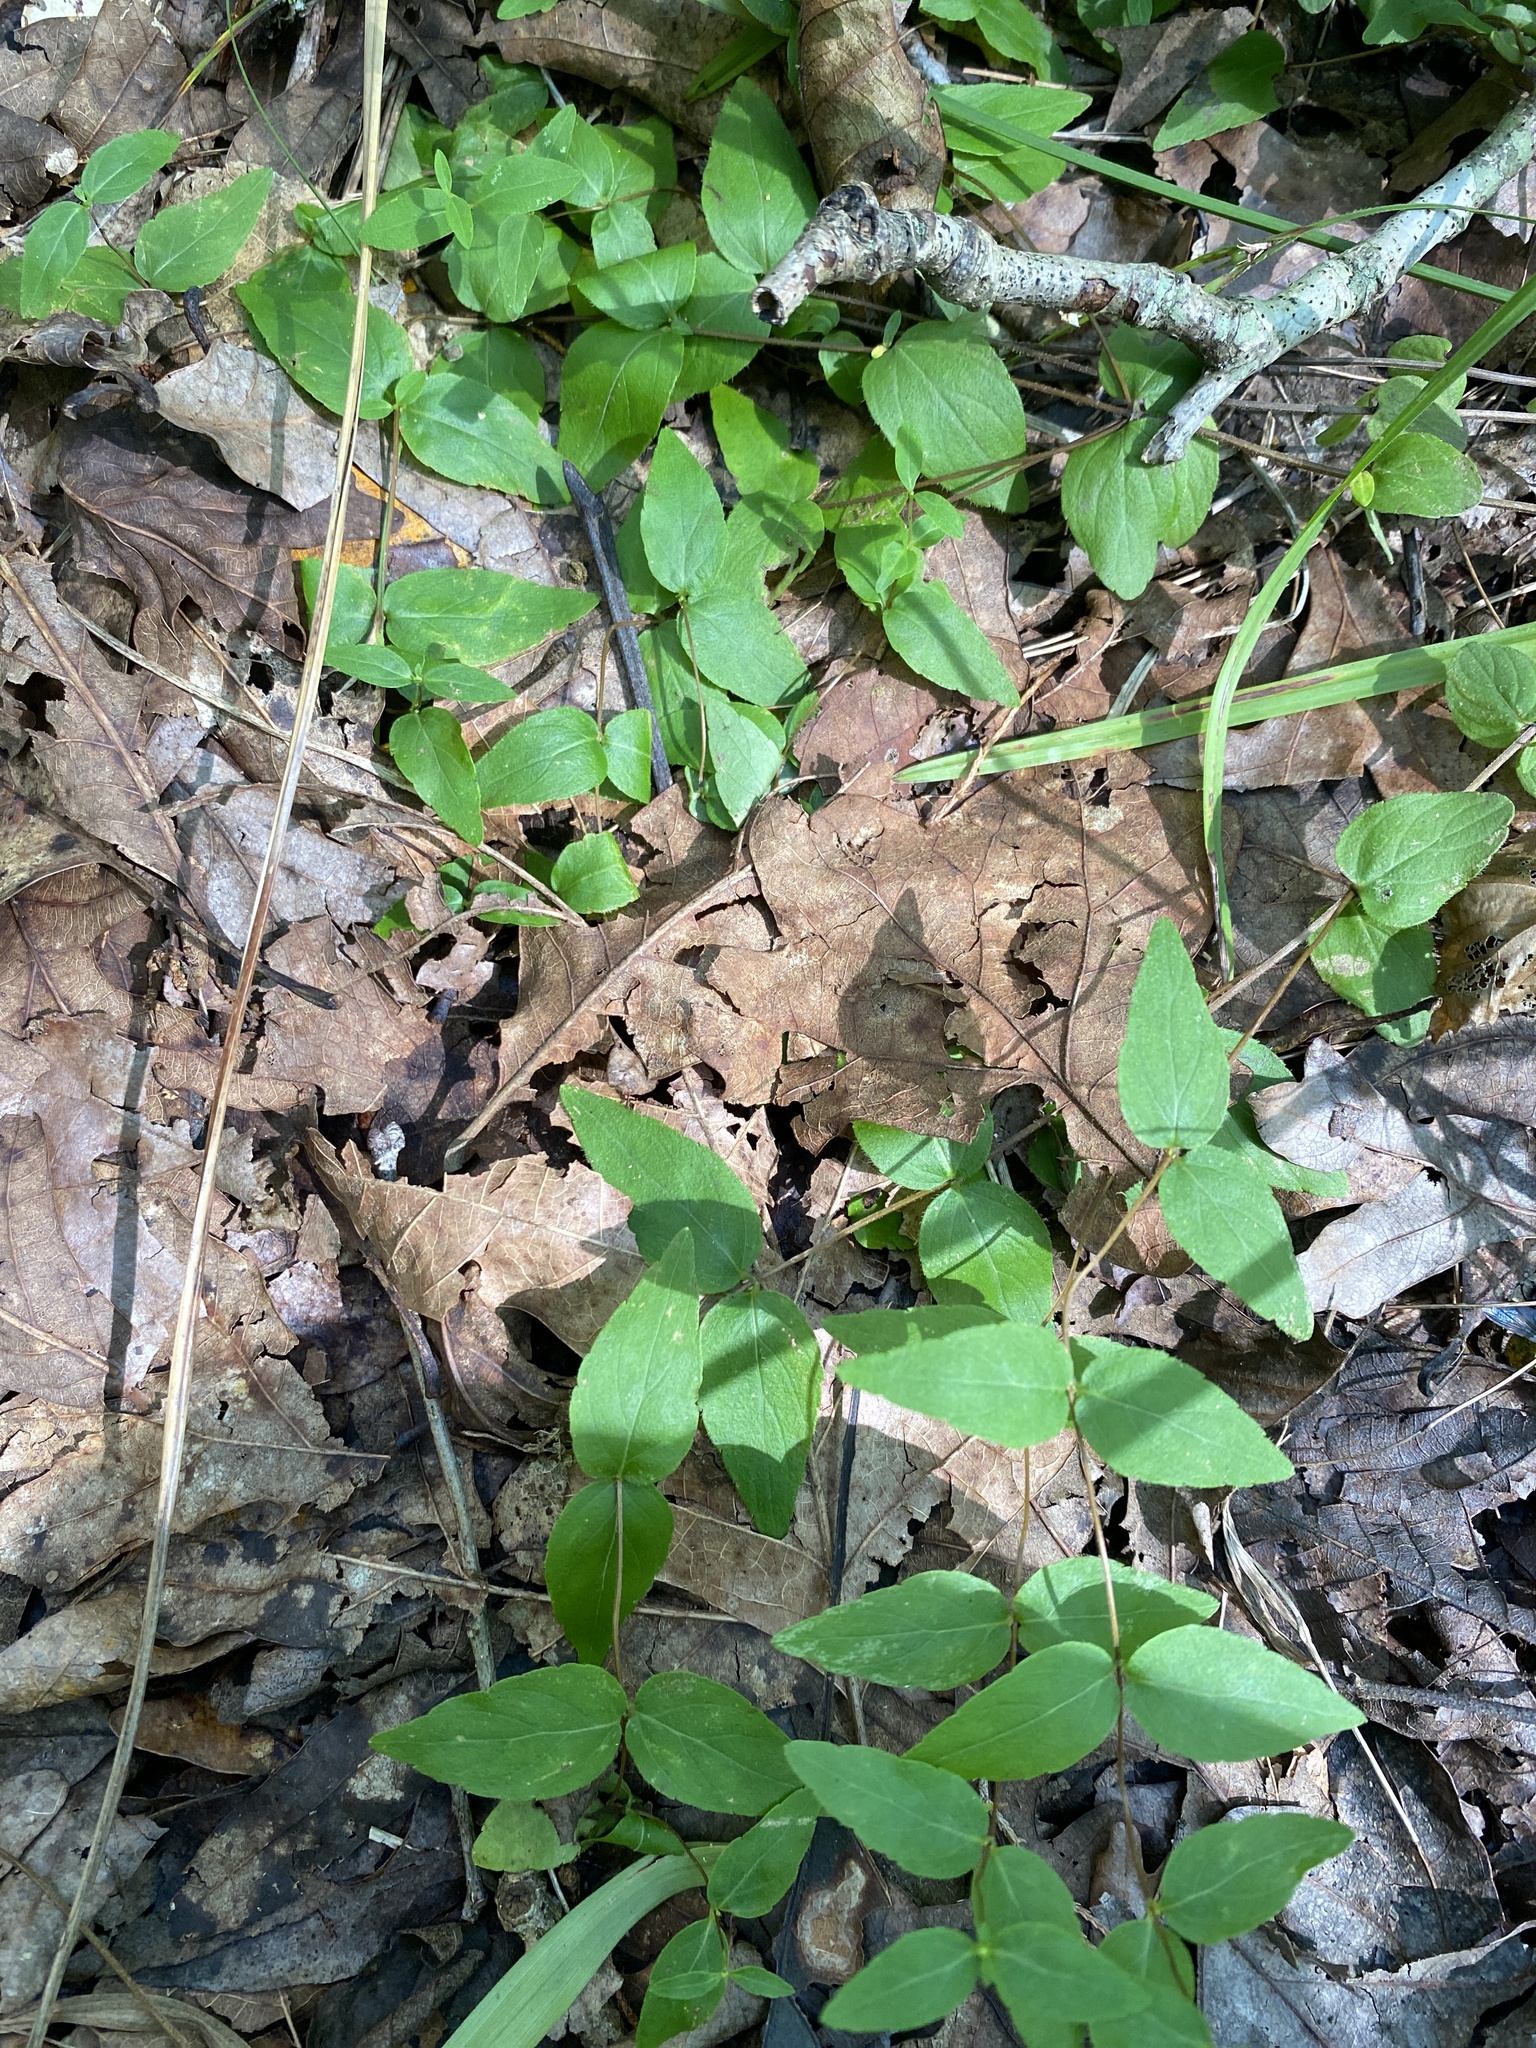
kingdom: Plantae
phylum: Tracheophyta
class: Magnoliopsida
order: Lamiales
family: Lamiaceae
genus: Cunila
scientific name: Cunila origanoides
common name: American dittany
